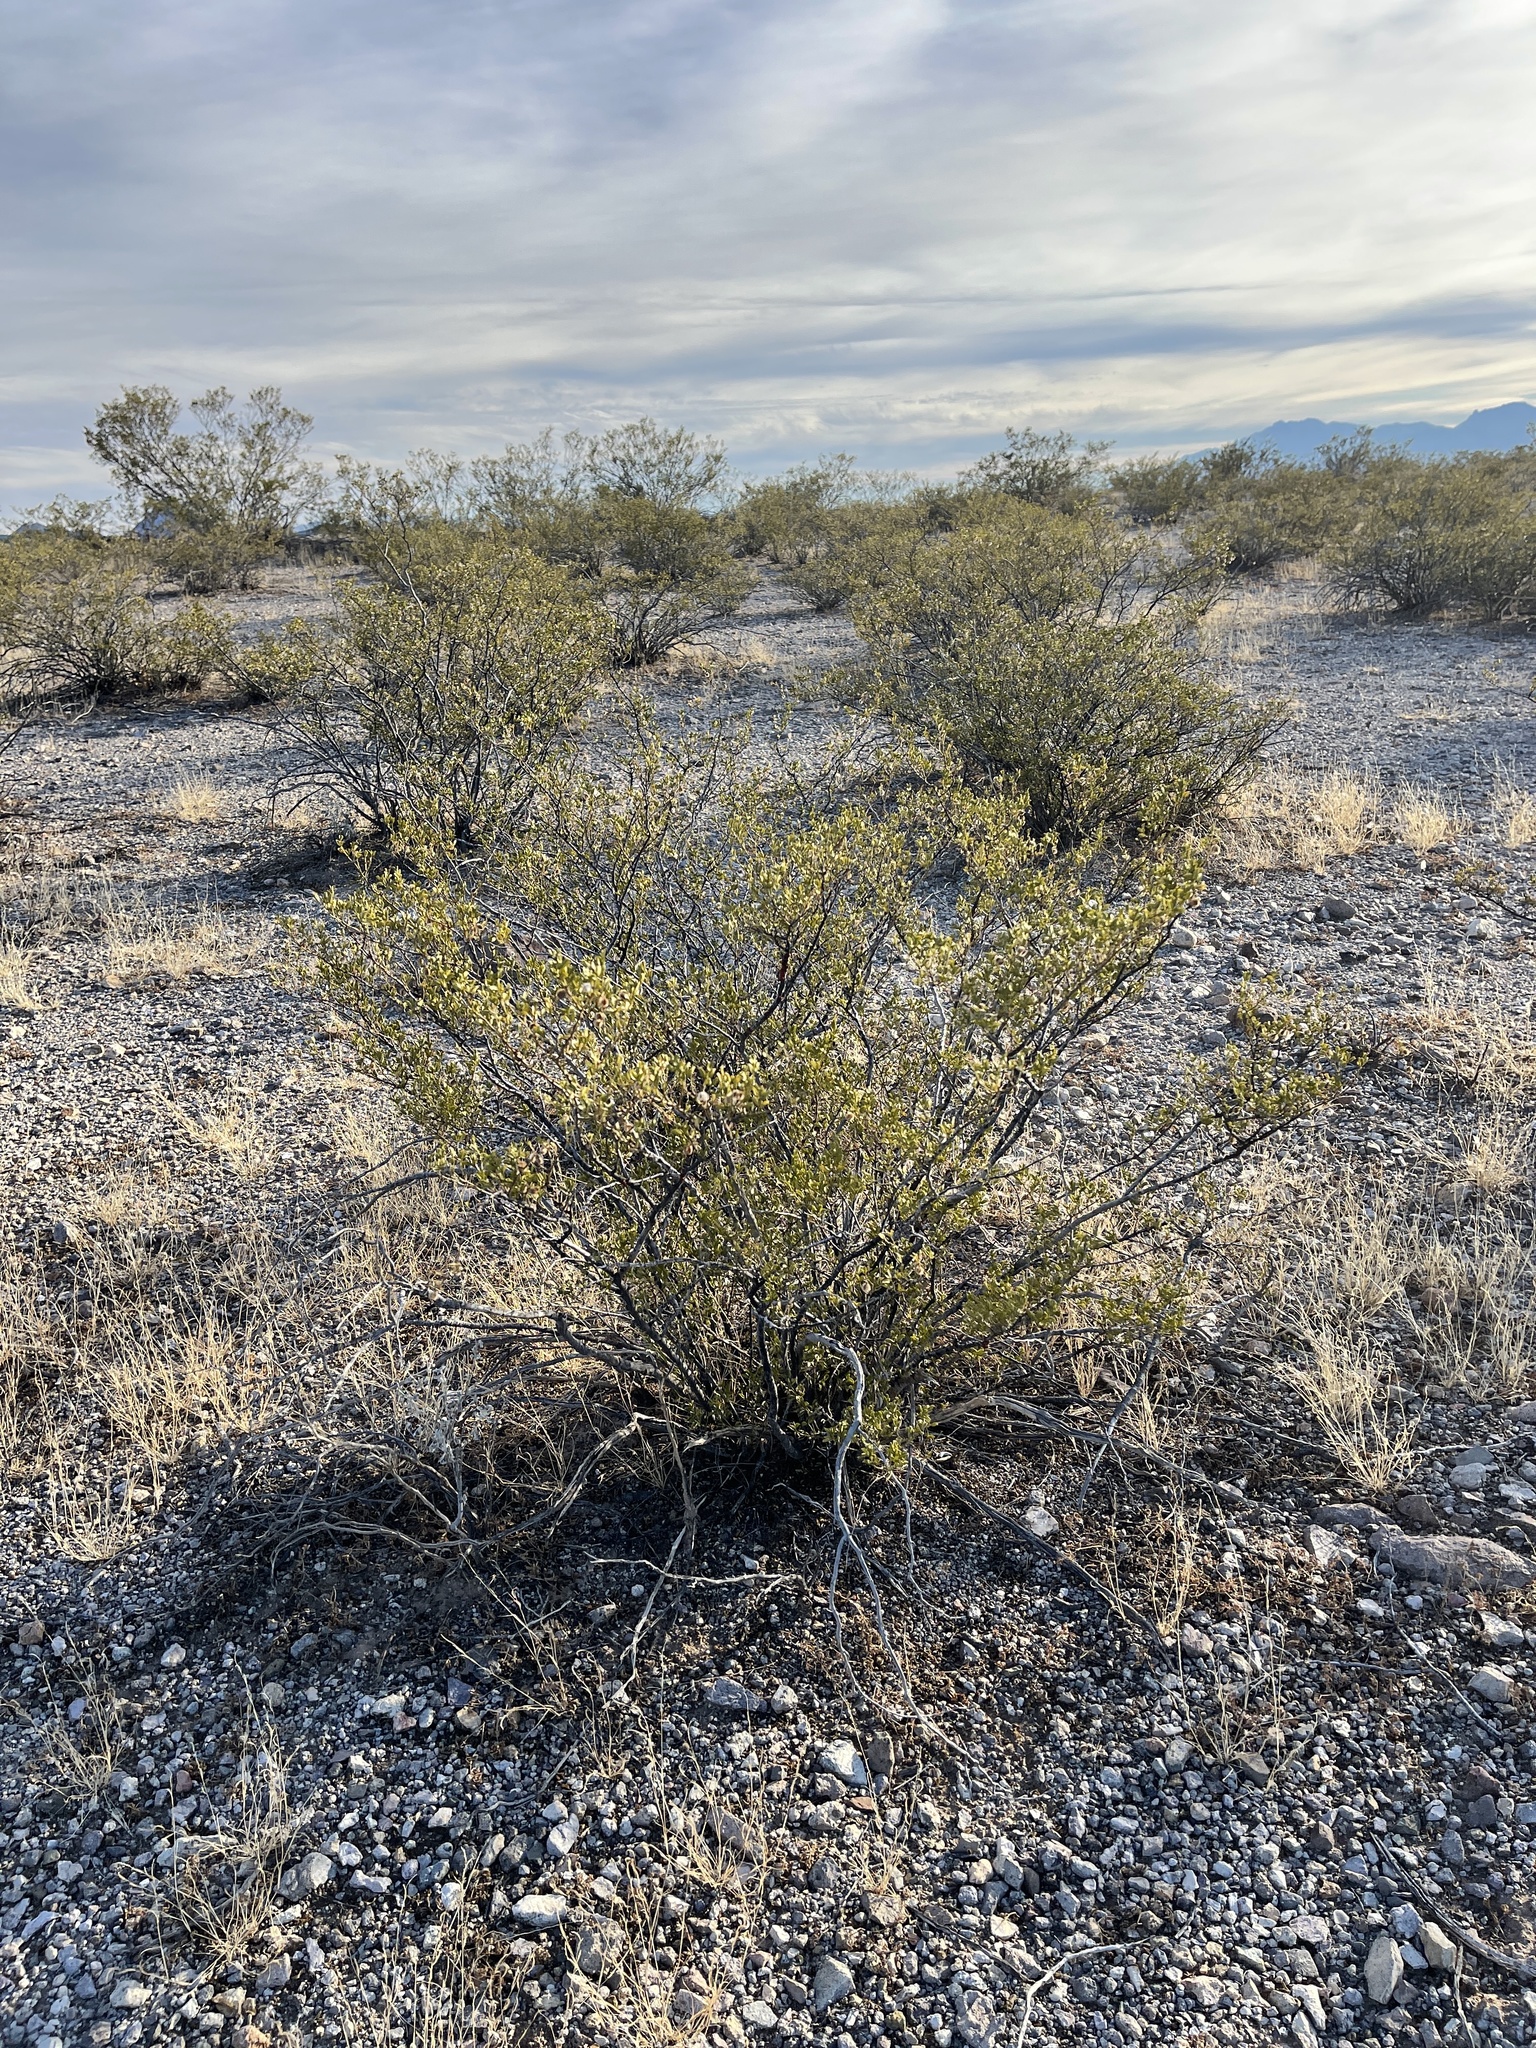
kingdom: Plantae
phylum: Tracheophyta
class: Magnoliopsida
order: Zygophyllales
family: Zygophyllaceae
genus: Larrea
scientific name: Larrea tridentata
